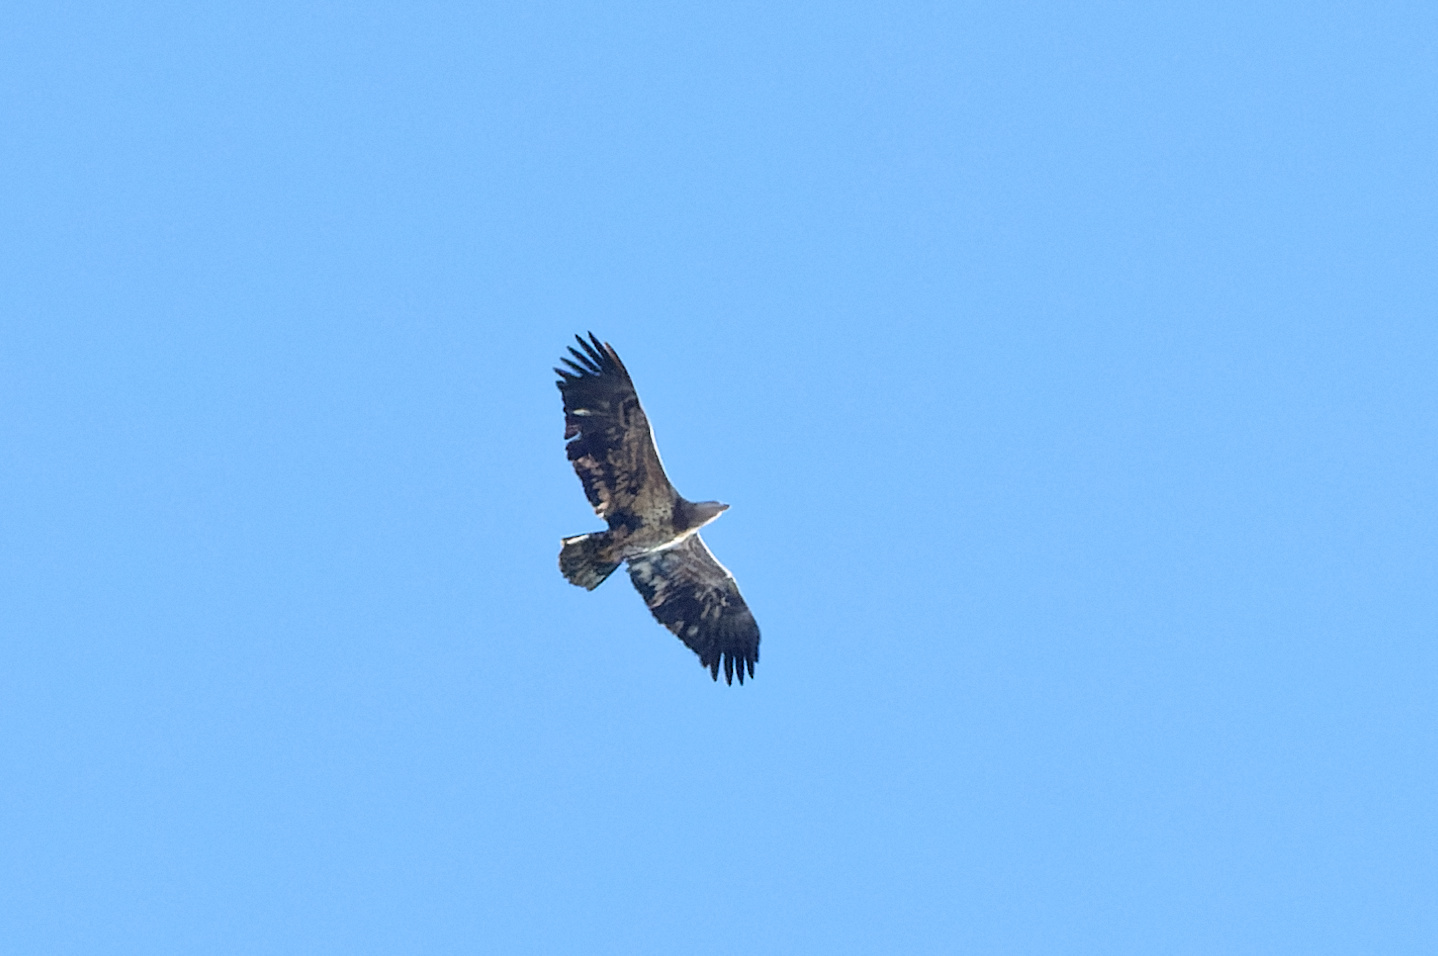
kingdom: Animalia
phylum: Chordata
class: Aves
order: Accipitriformes
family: Accipitridae
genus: Haliaeetus
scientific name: Haliaeetus leucocephalus
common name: Bald eagle
